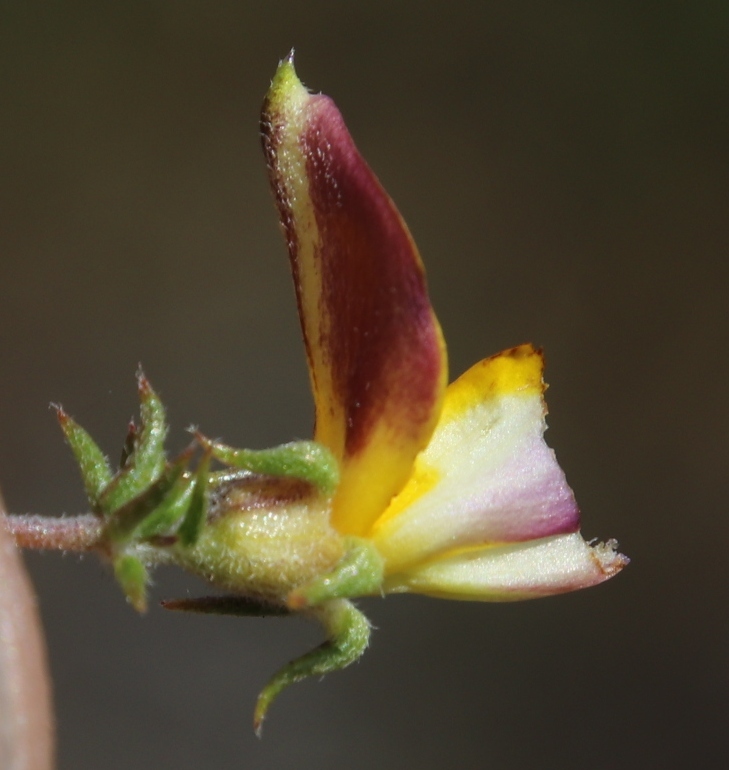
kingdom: Plantae
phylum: Tracheophyta
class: Magnoliopsida
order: Fabales
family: Fabaceae
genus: Aspalathus
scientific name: Aspalathus retroflexa
